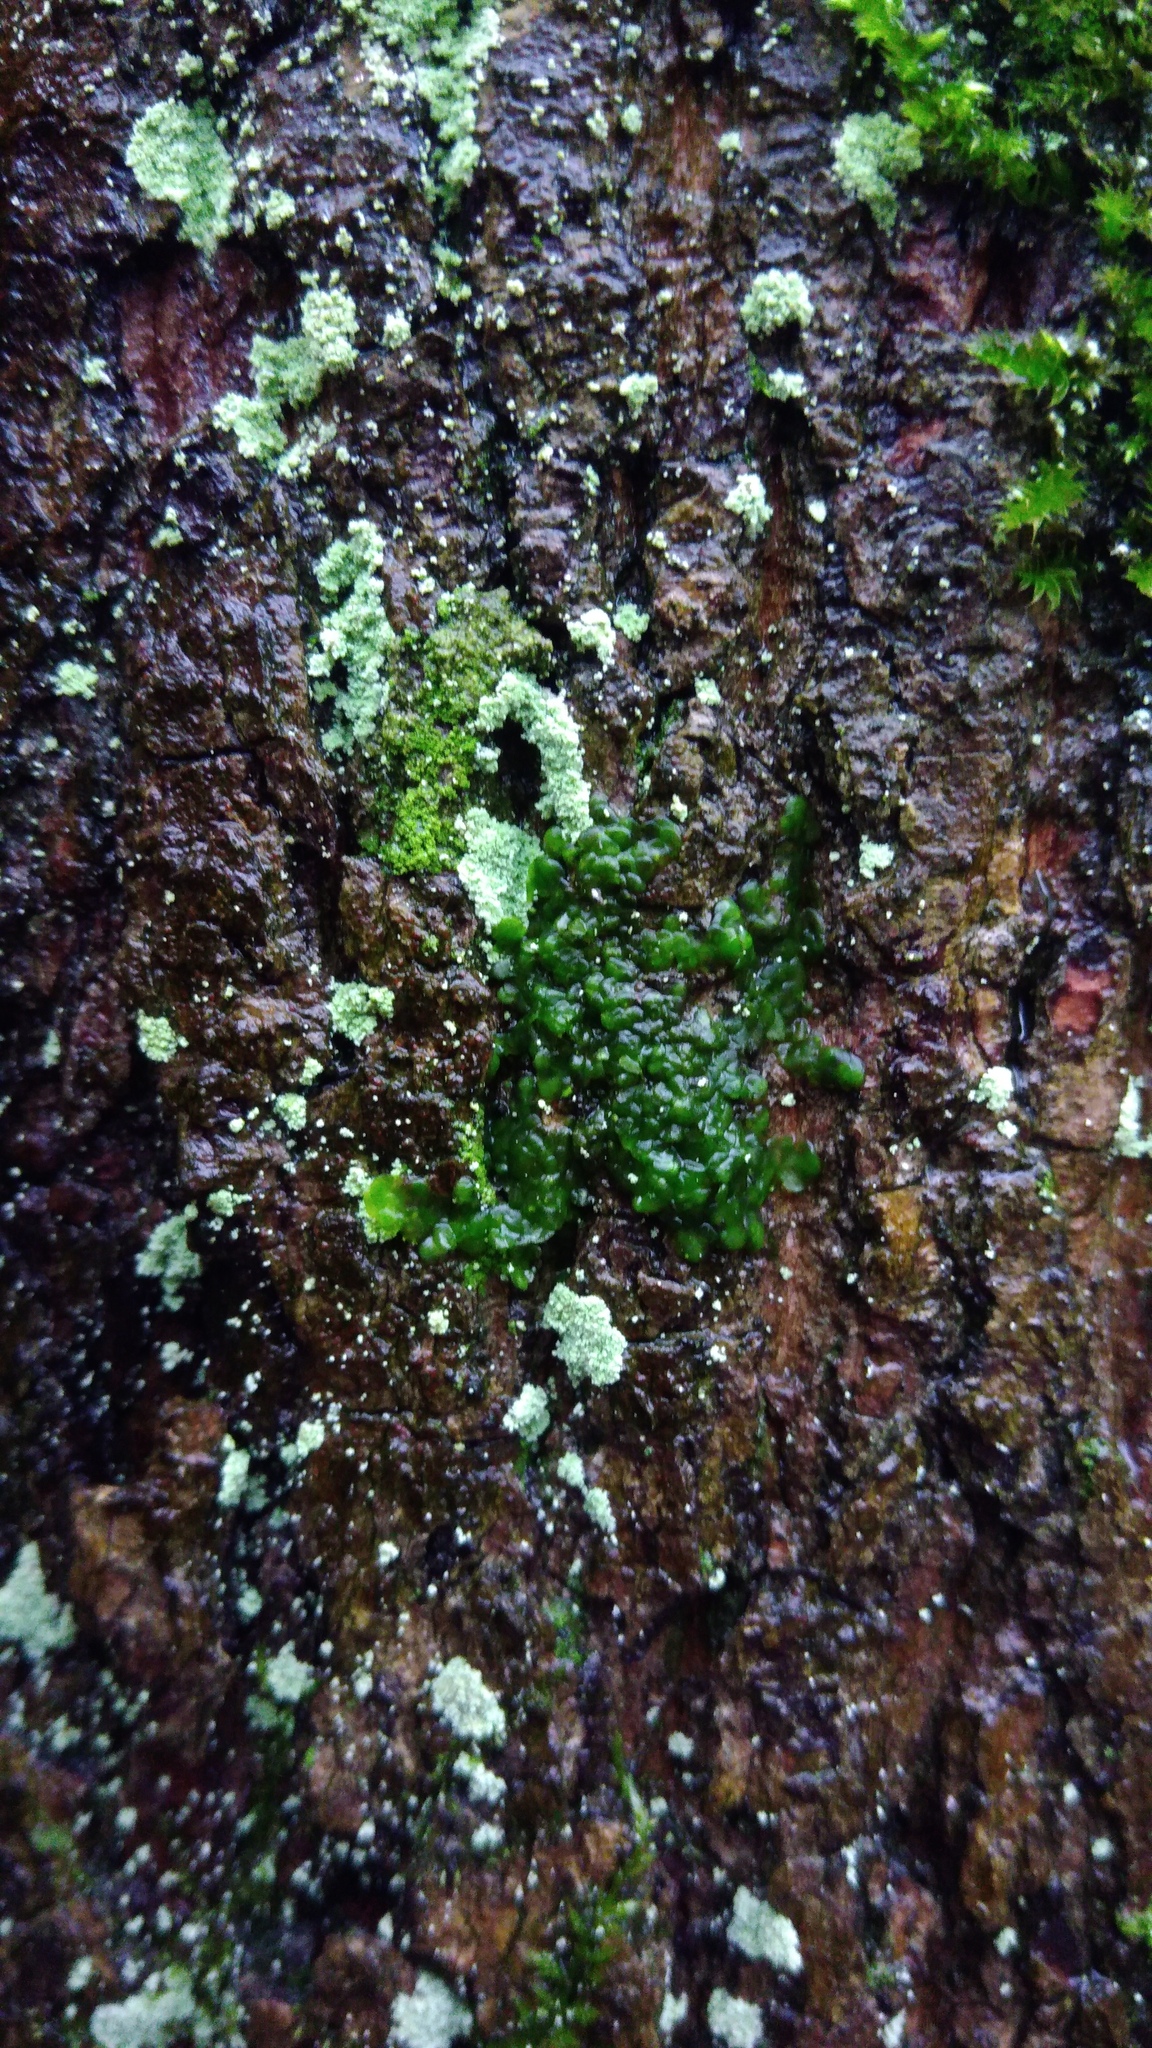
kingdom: Plantae
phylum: Marchantiophyta
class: Jungermanniopsida
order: Porellales
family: Radulaceae
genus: Radula
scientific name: Radula complanata
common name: Flat-leaved scalewort
